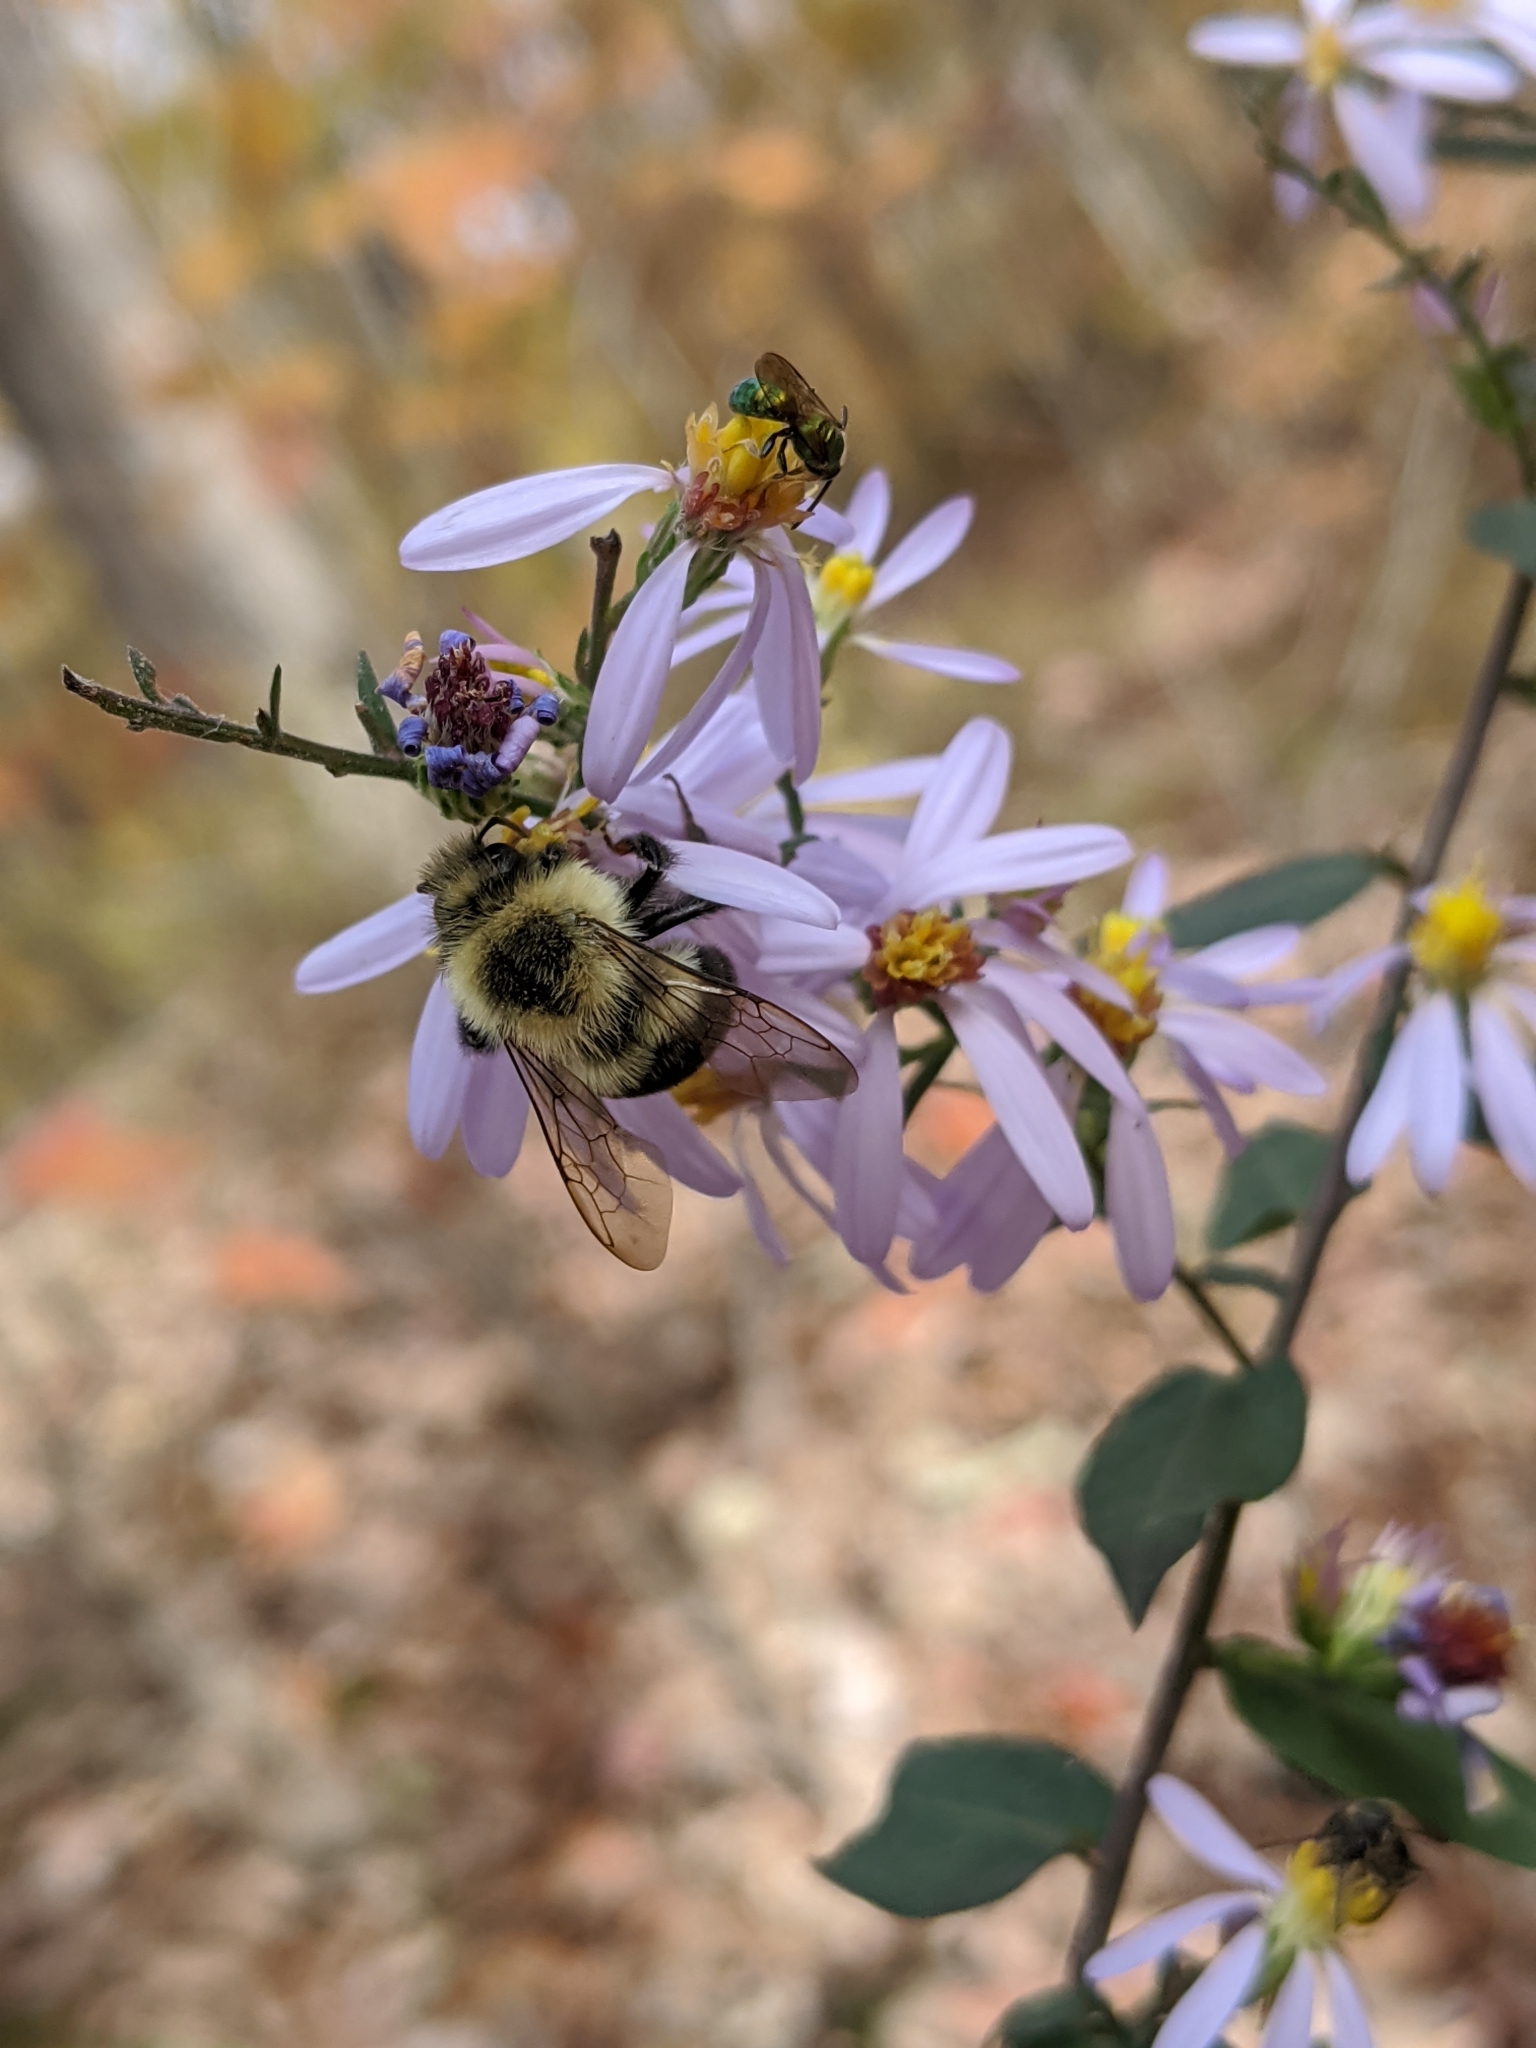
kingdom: Animalia
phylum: Arthropoda
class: Insecta
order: Hymenoptera
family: Apidae
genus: Bombus
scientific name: Bombus impatiens
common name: Common eastern bumble bee
